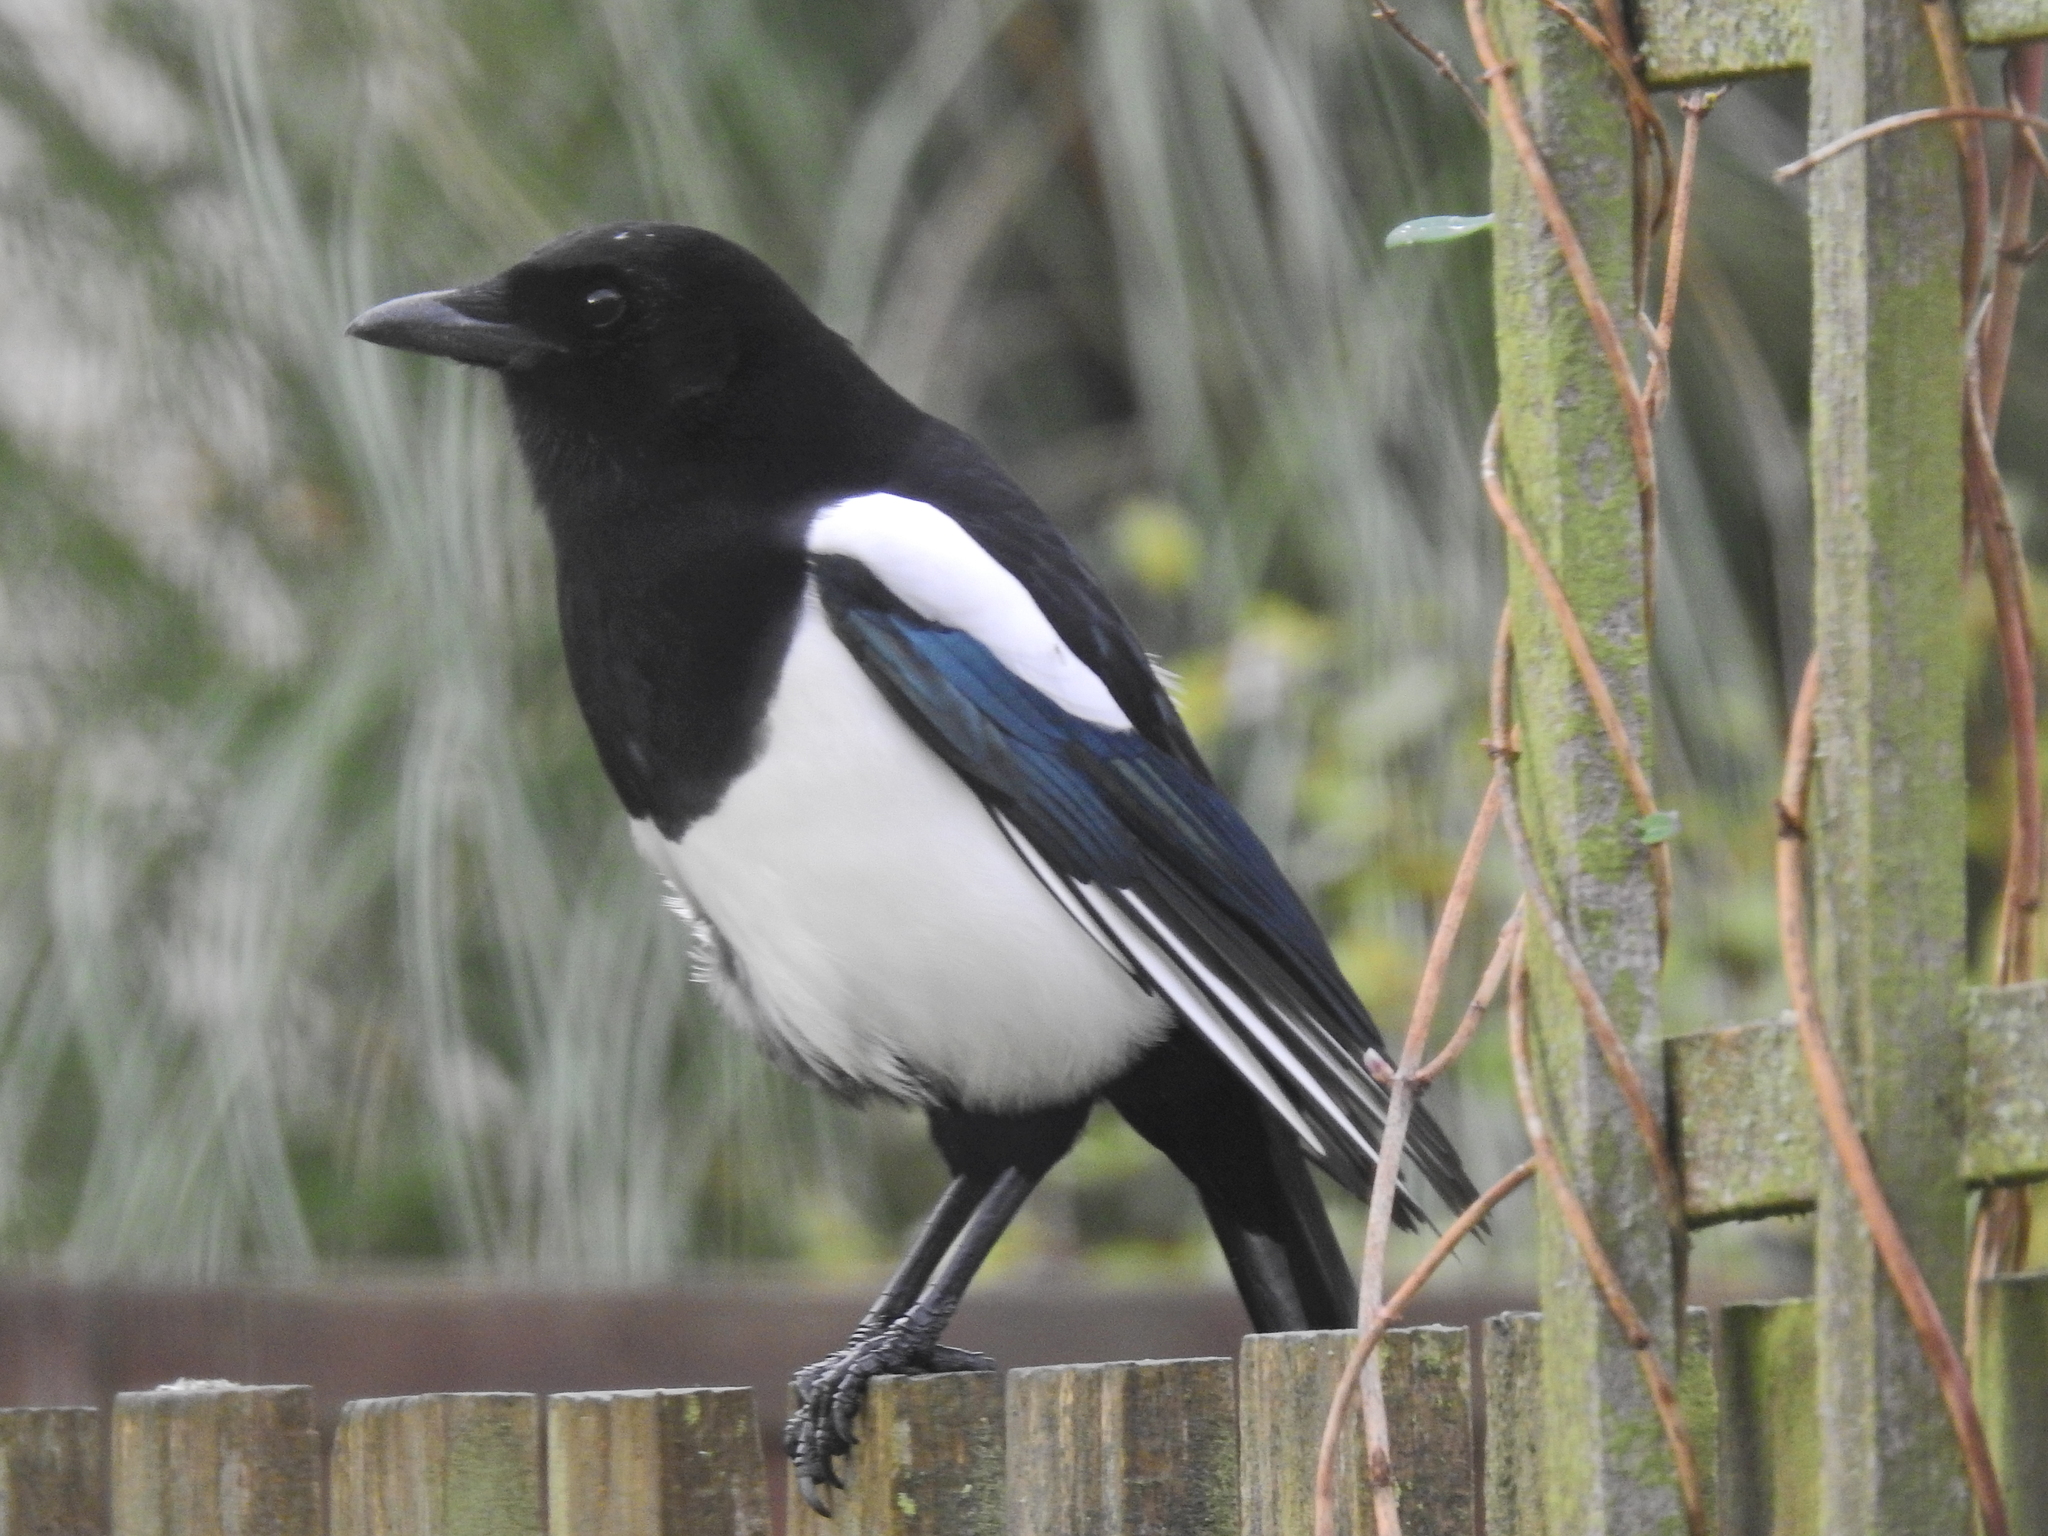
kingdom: Animalia
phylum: Chordata
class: Aves
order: Passeriformes
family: Corvidae
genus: Pica
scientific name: Pica pica
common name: Eurasian magpie
